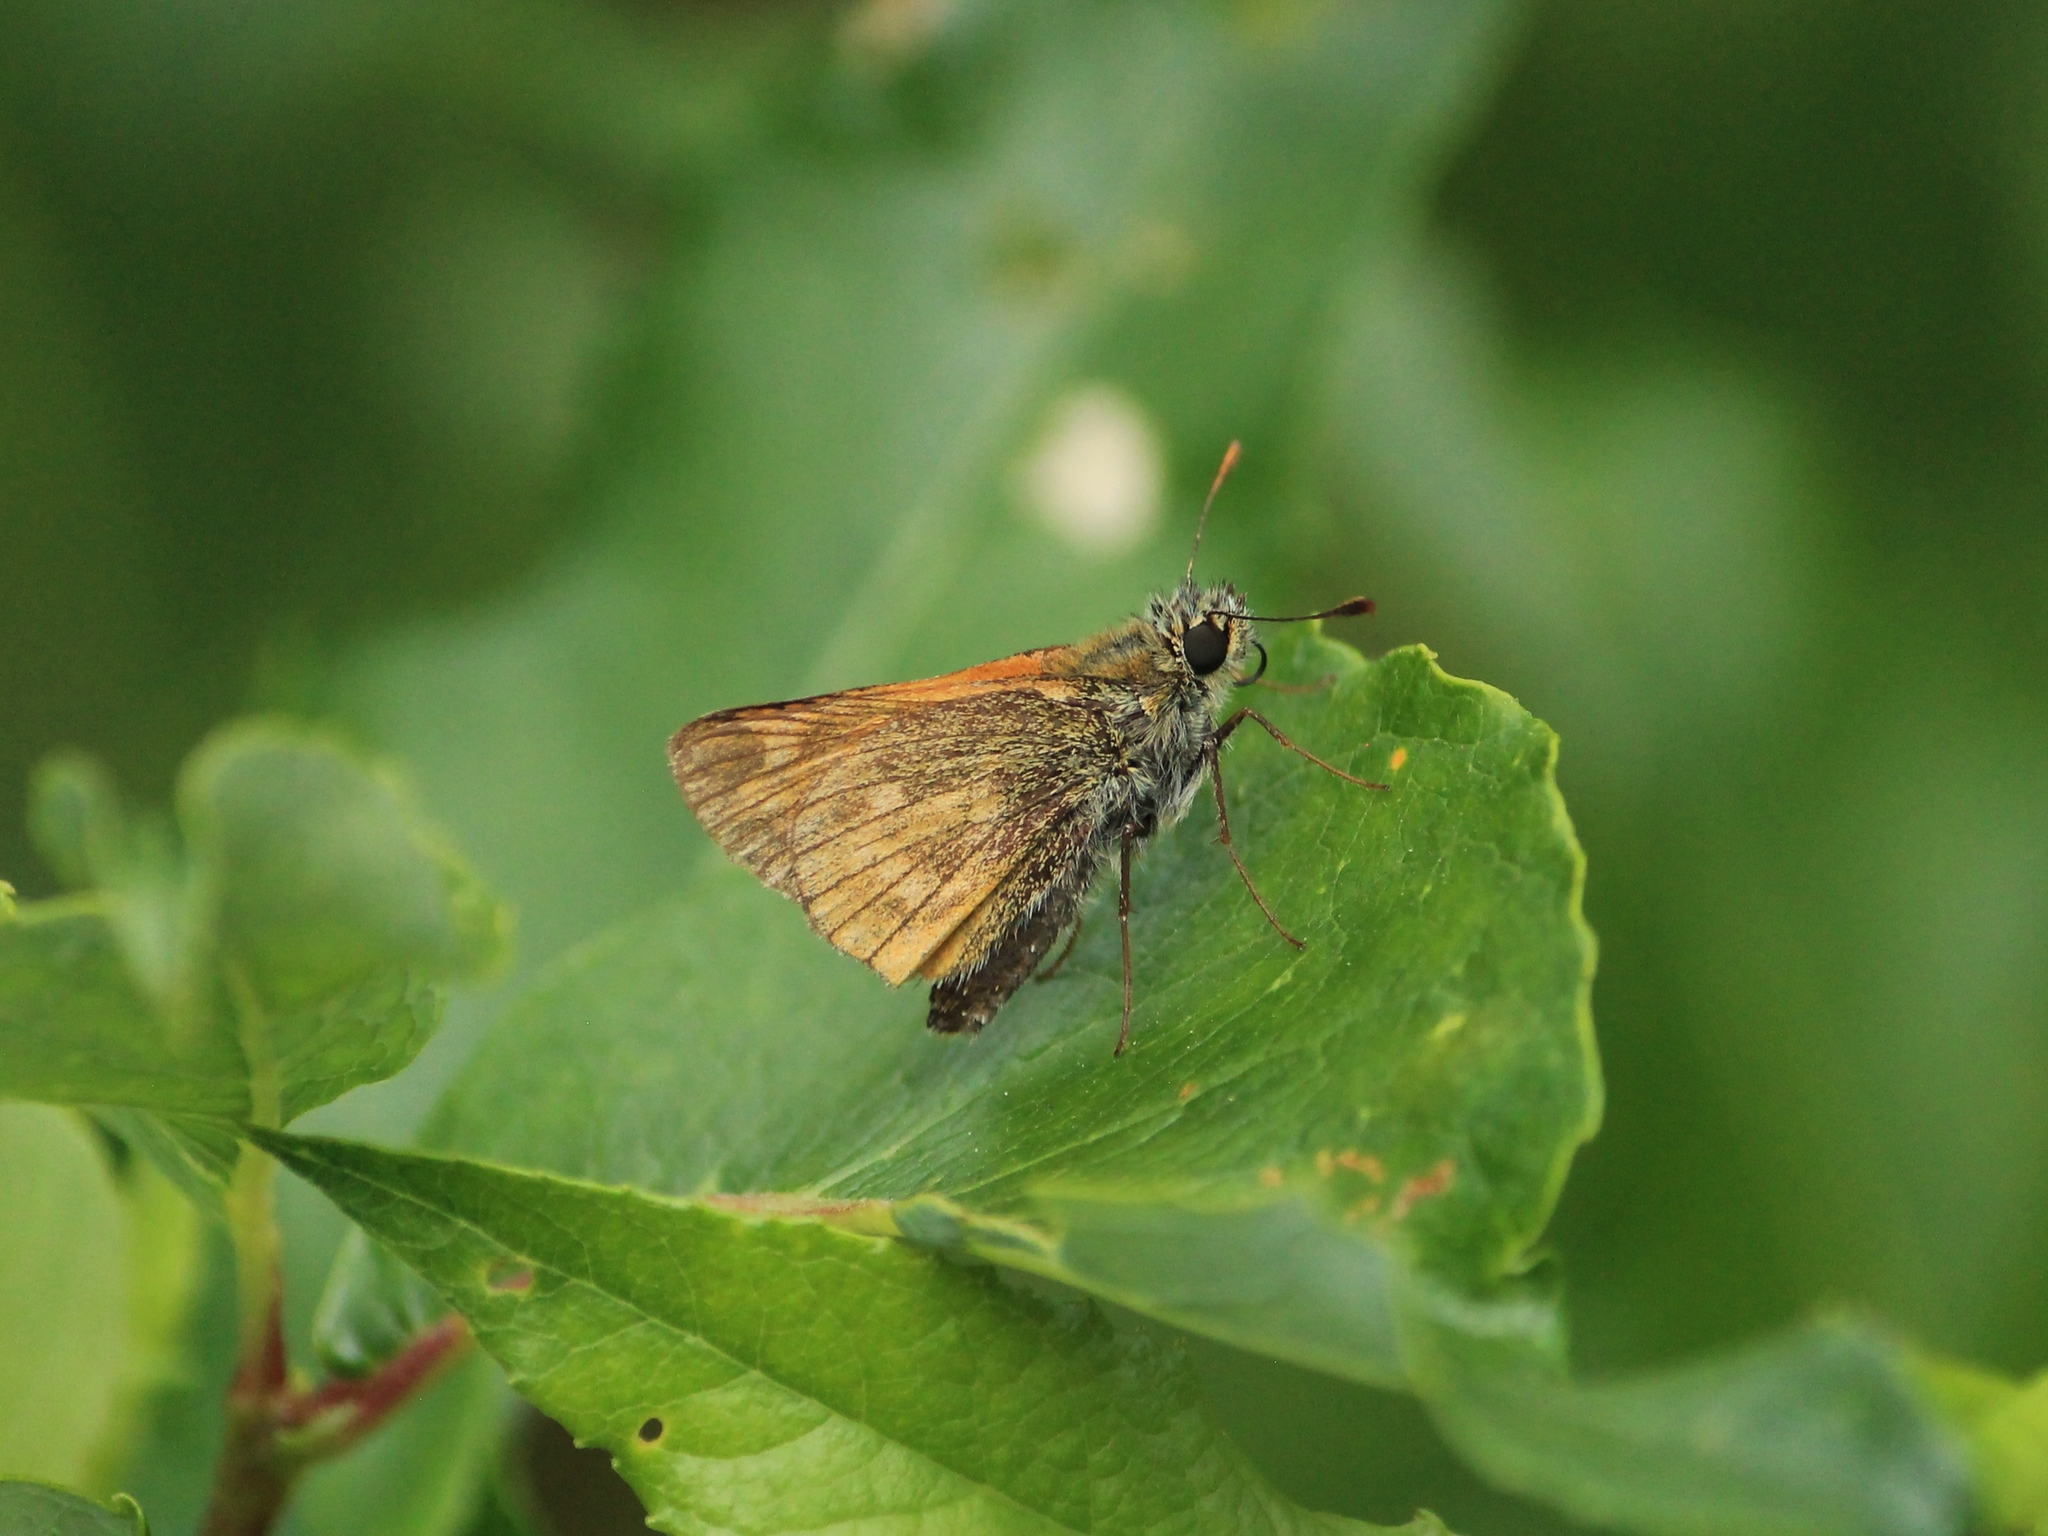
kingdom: Animalia
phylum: Arthropoda
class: Insecta
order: Lepidoptera
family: Hesperiidae
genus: Ochlodes
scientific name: Ochlodes venata
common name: Large skipper
